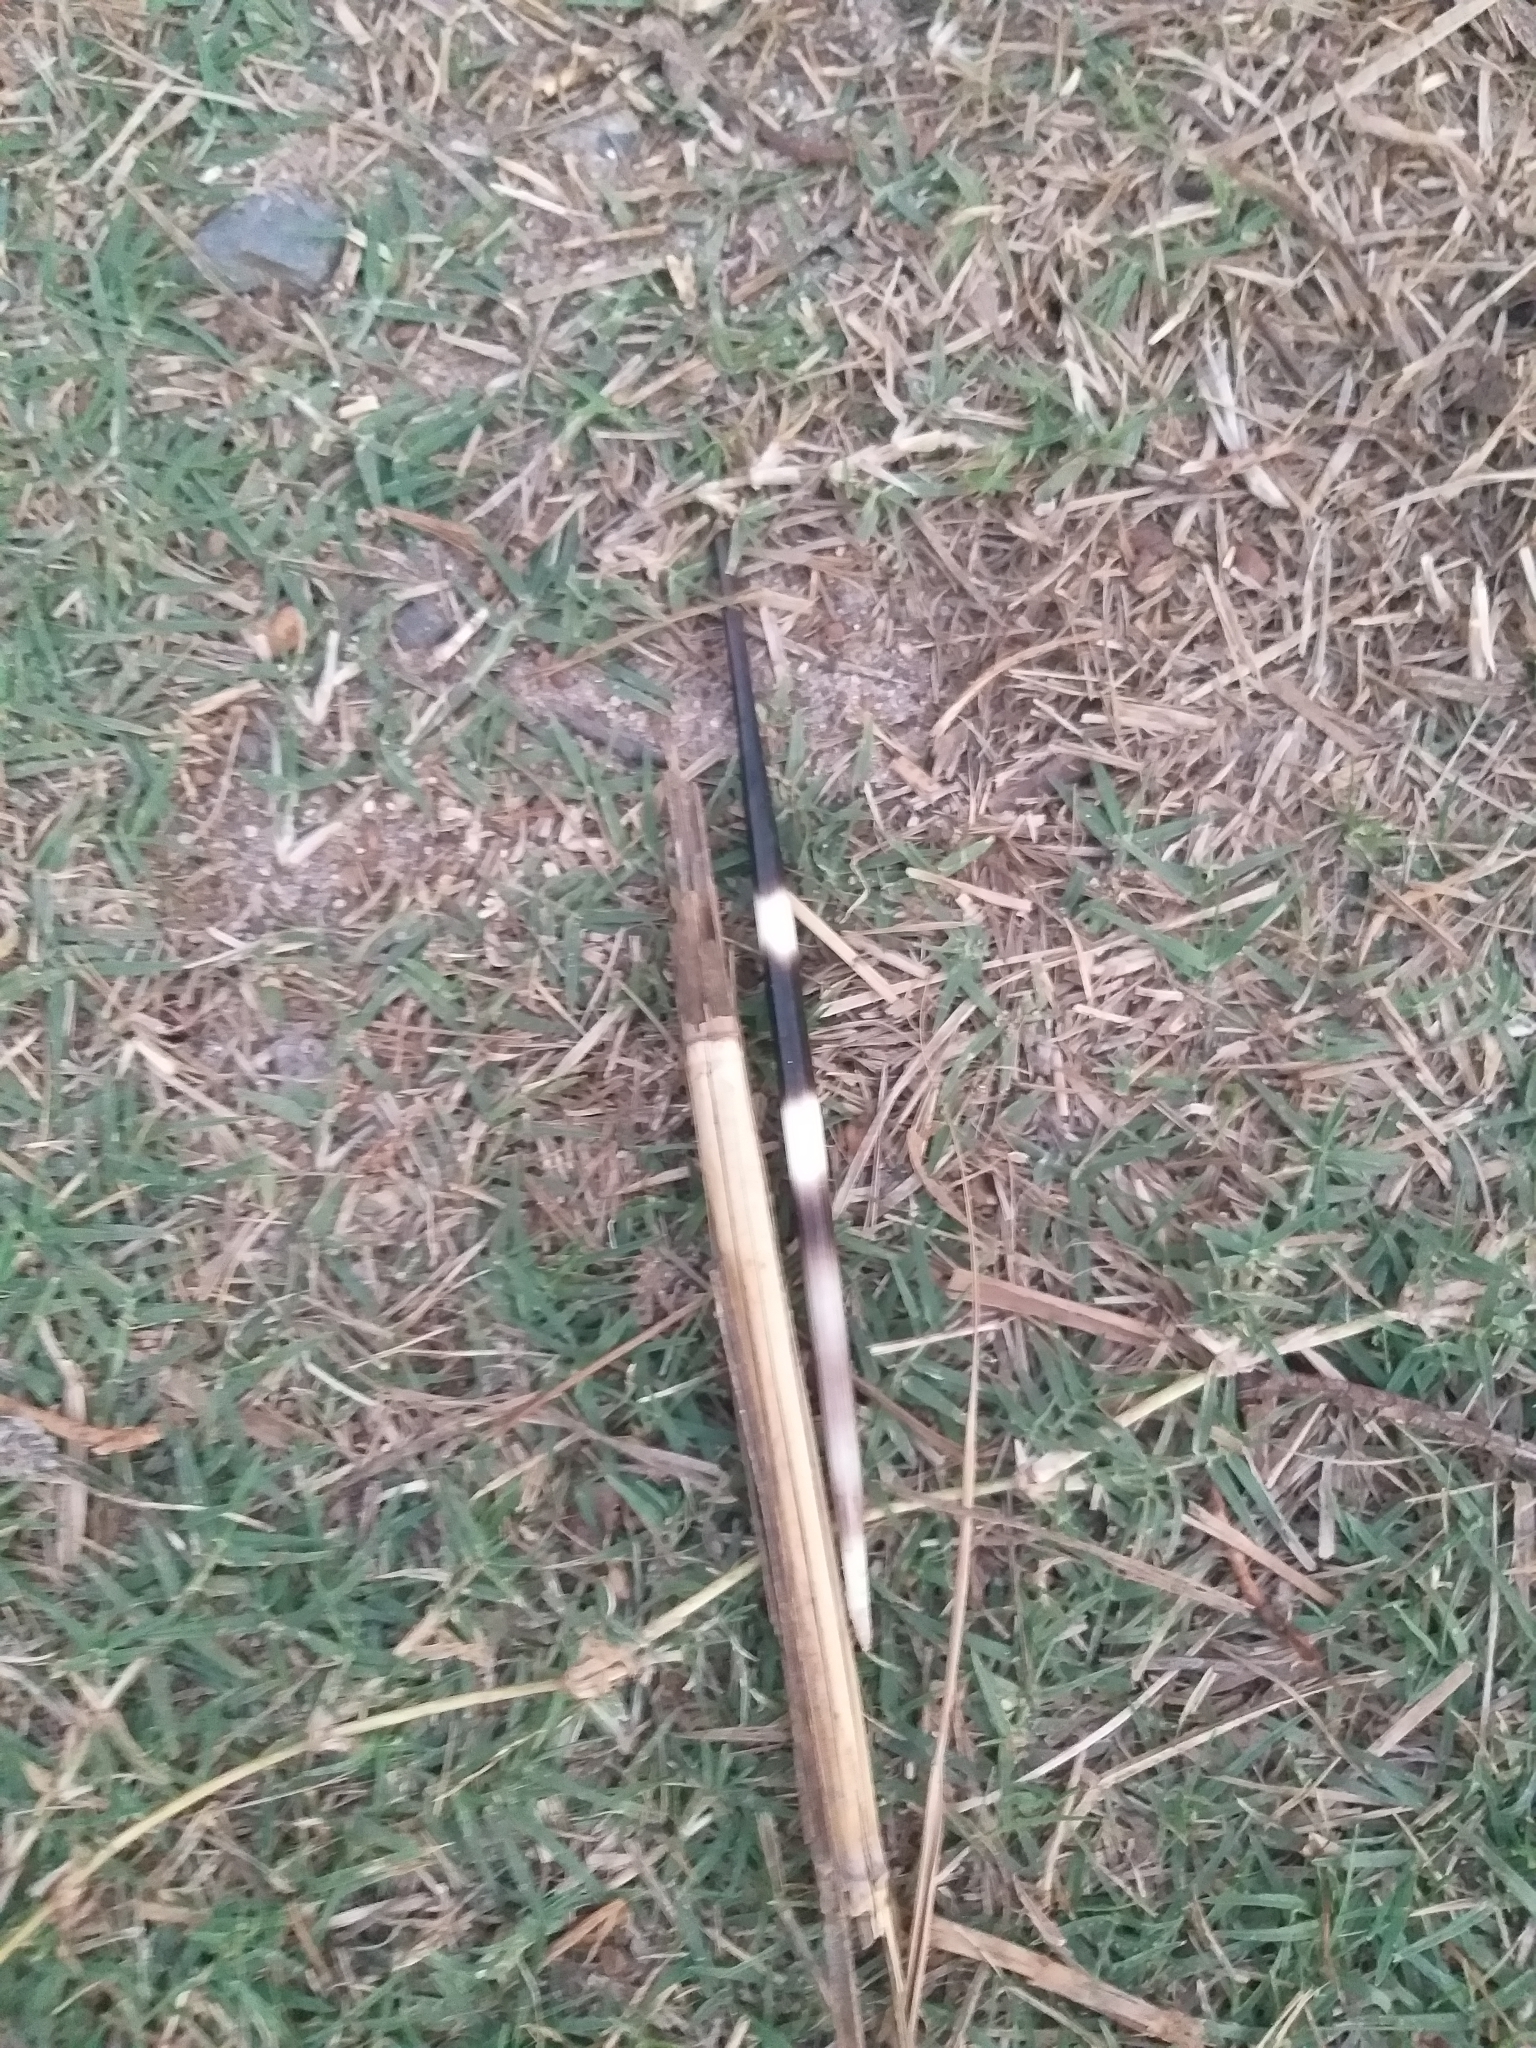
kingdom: Animalia
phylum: Chordata
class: Mammalia
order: Rodentia
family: Hystricidae
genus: Hystrix
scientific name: Hystrix africaeaustralis
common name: Cape porcupine
